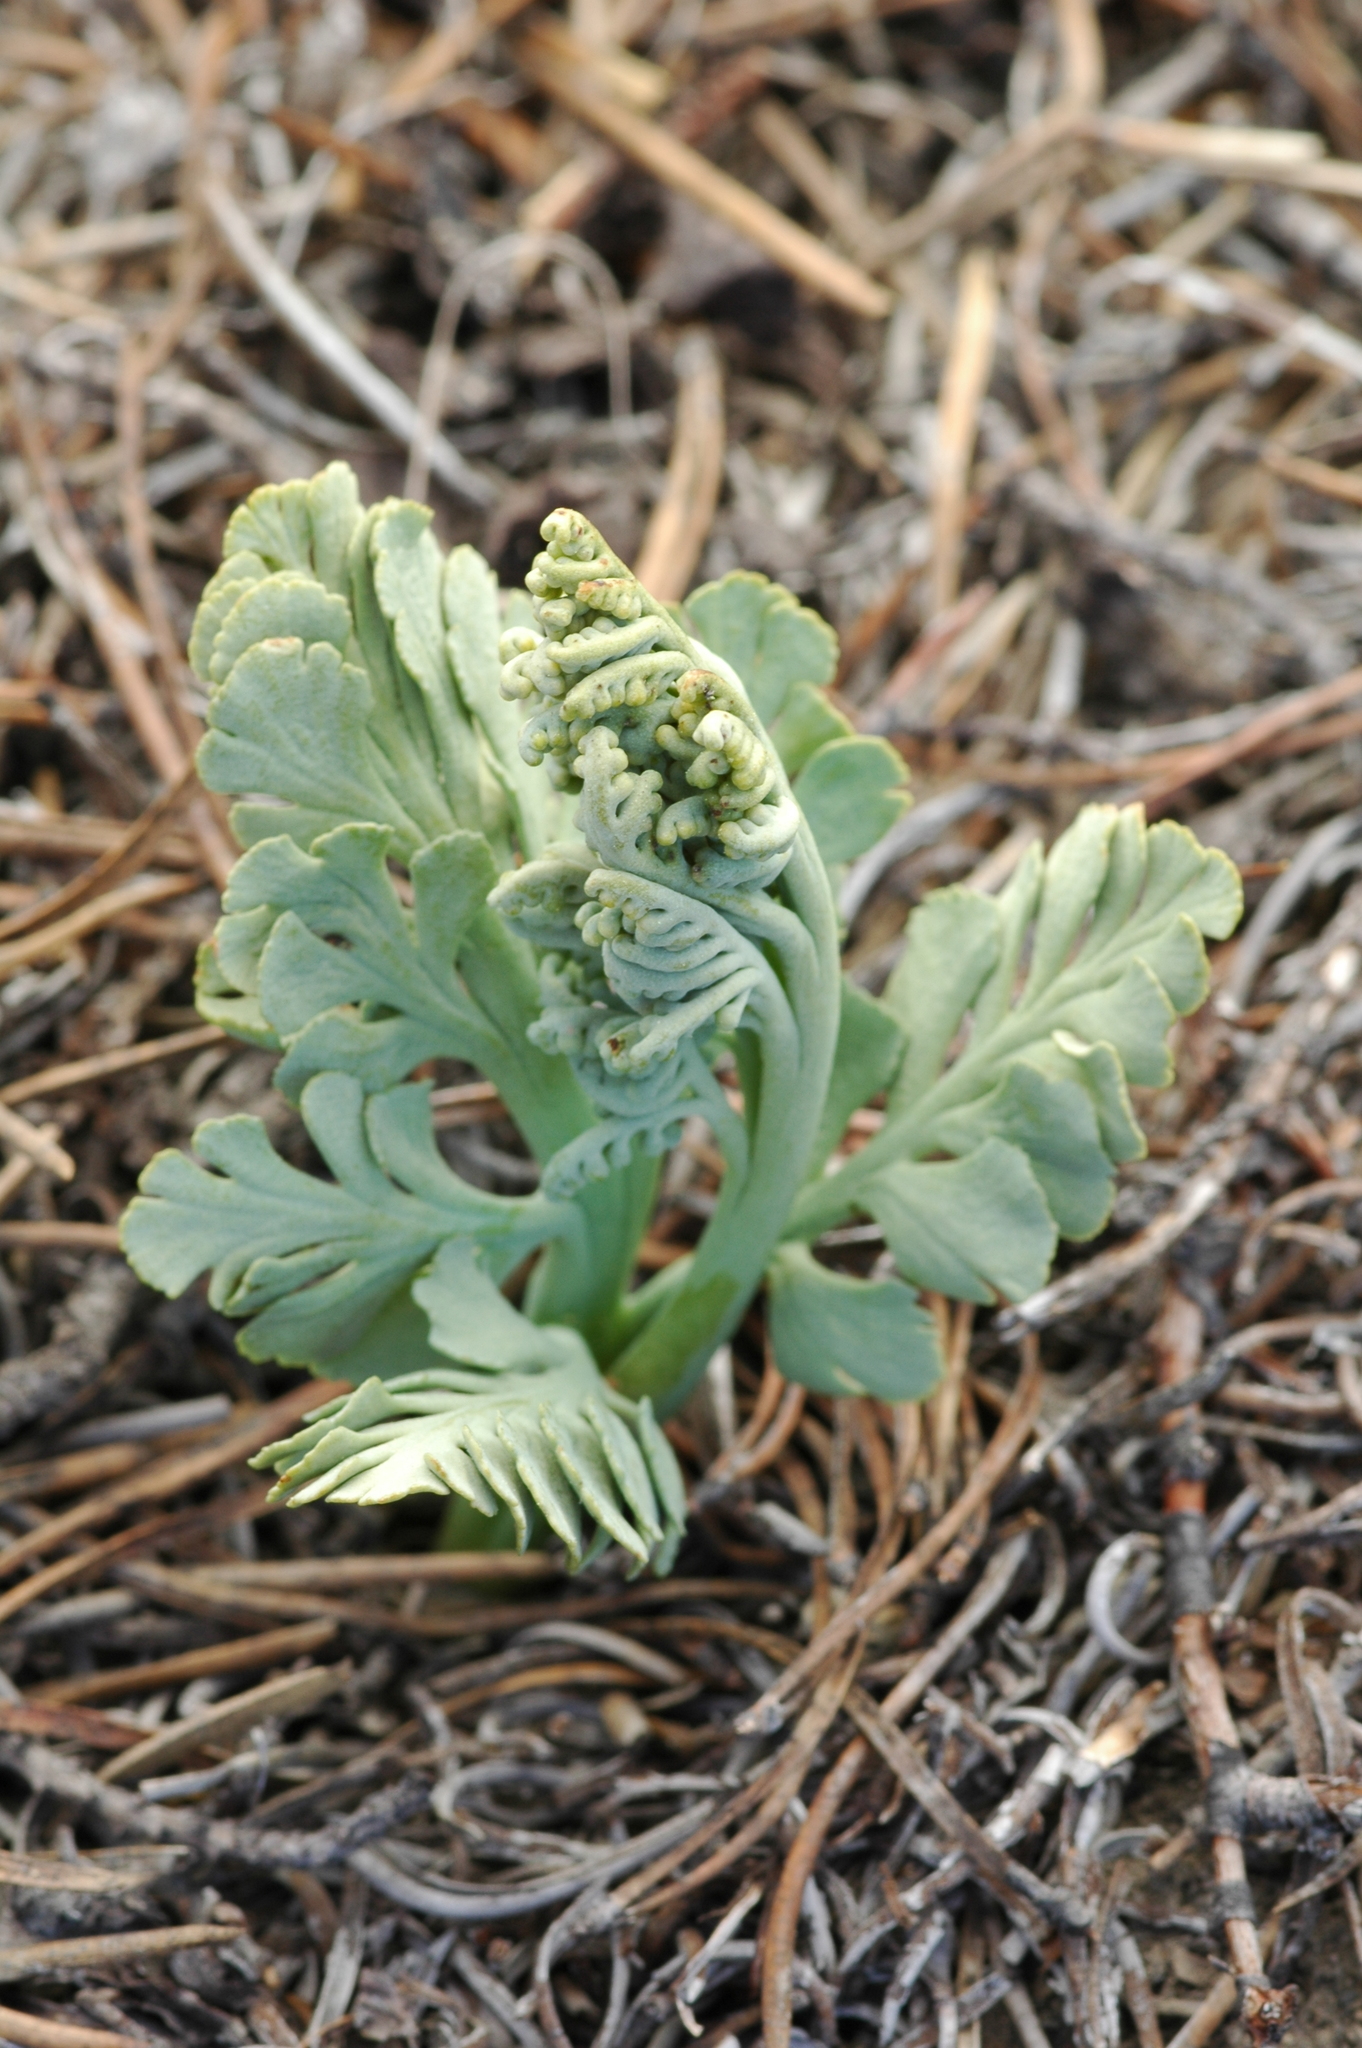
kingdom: Plantae
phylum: Tracheophyta
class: Polypodiopsida
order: Ophioglossales
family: Ophioglossaceae
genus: Botrychium
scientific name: Botrychium pumicola
